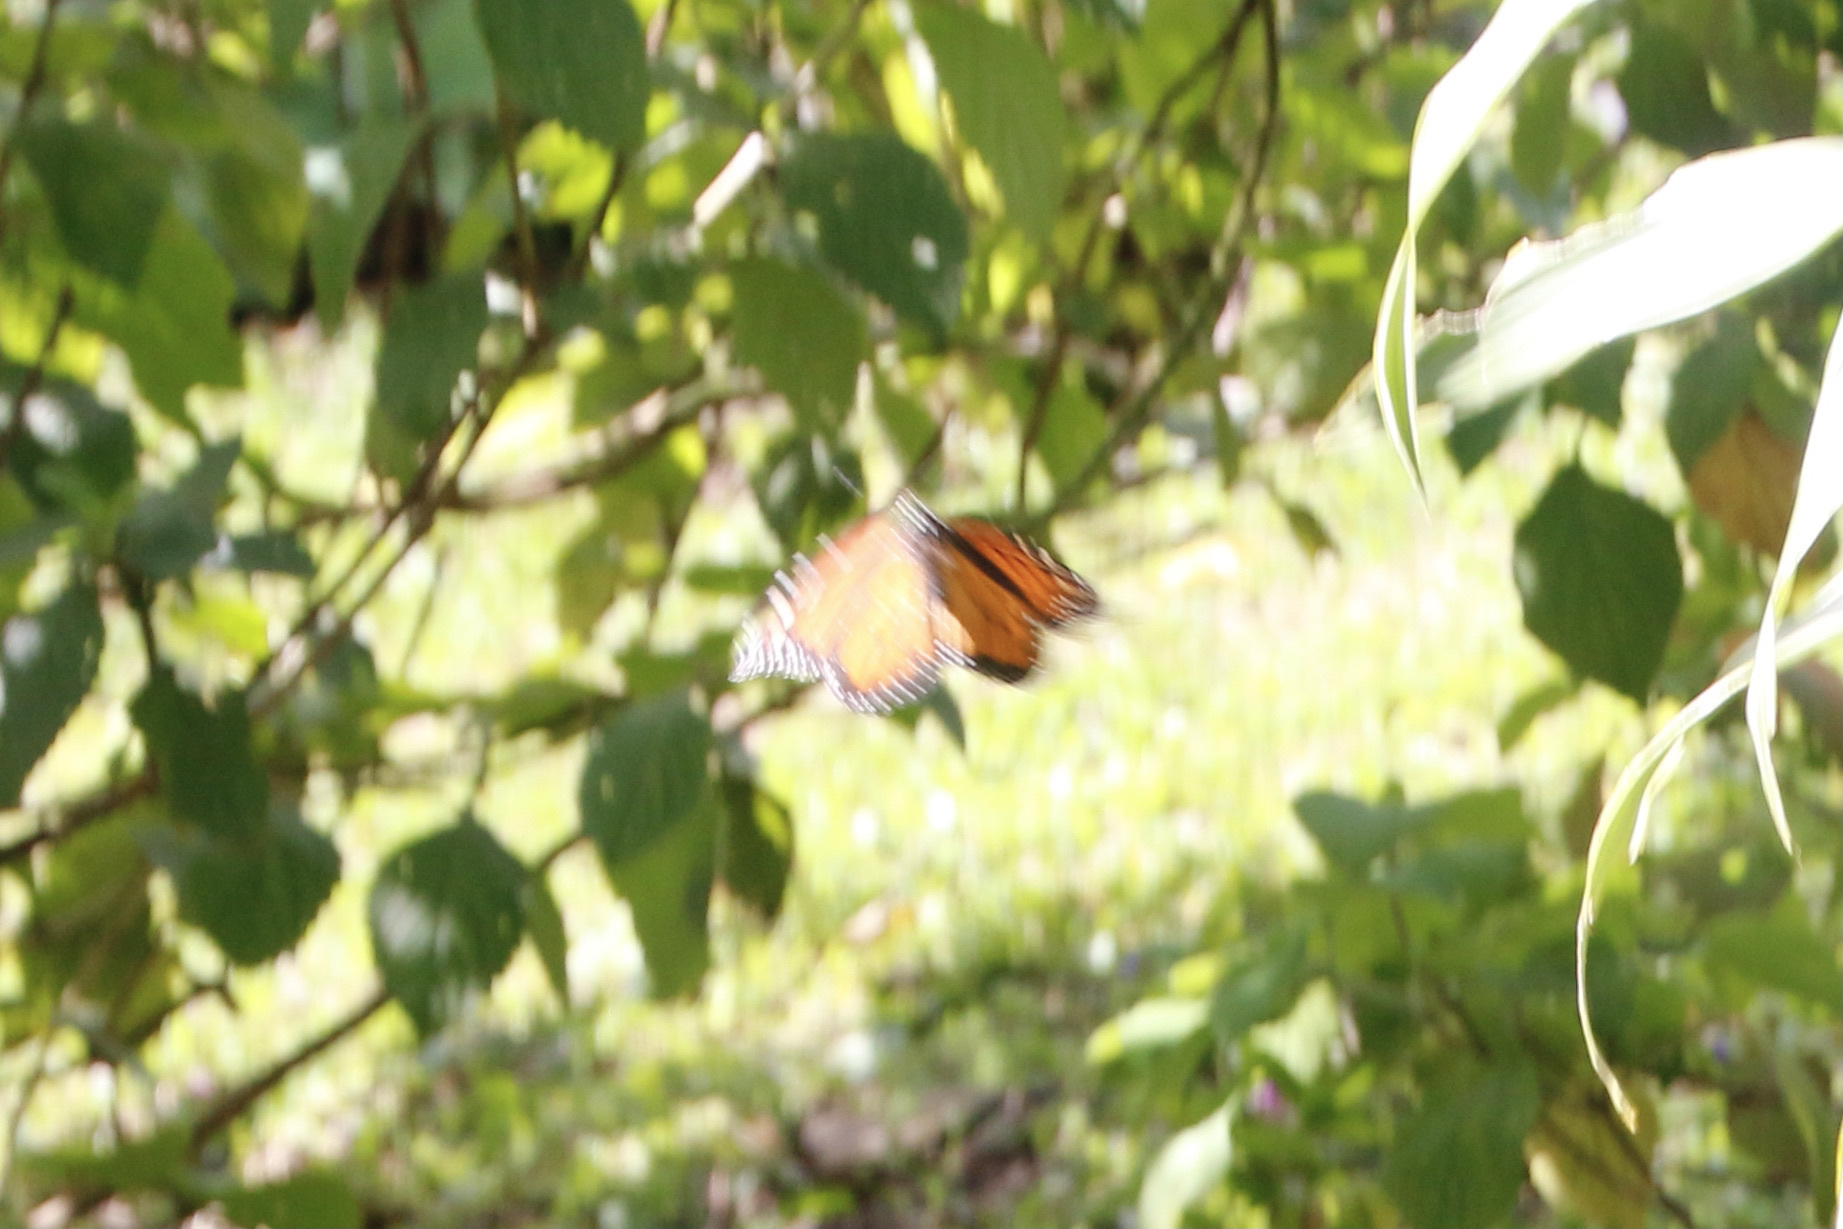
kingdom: Animalia
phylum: Arthropoda
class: Insecta
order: Lepidoptera
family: Nymphalidae
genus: Danaus
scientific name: Danaus plexippus
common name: Monarch
